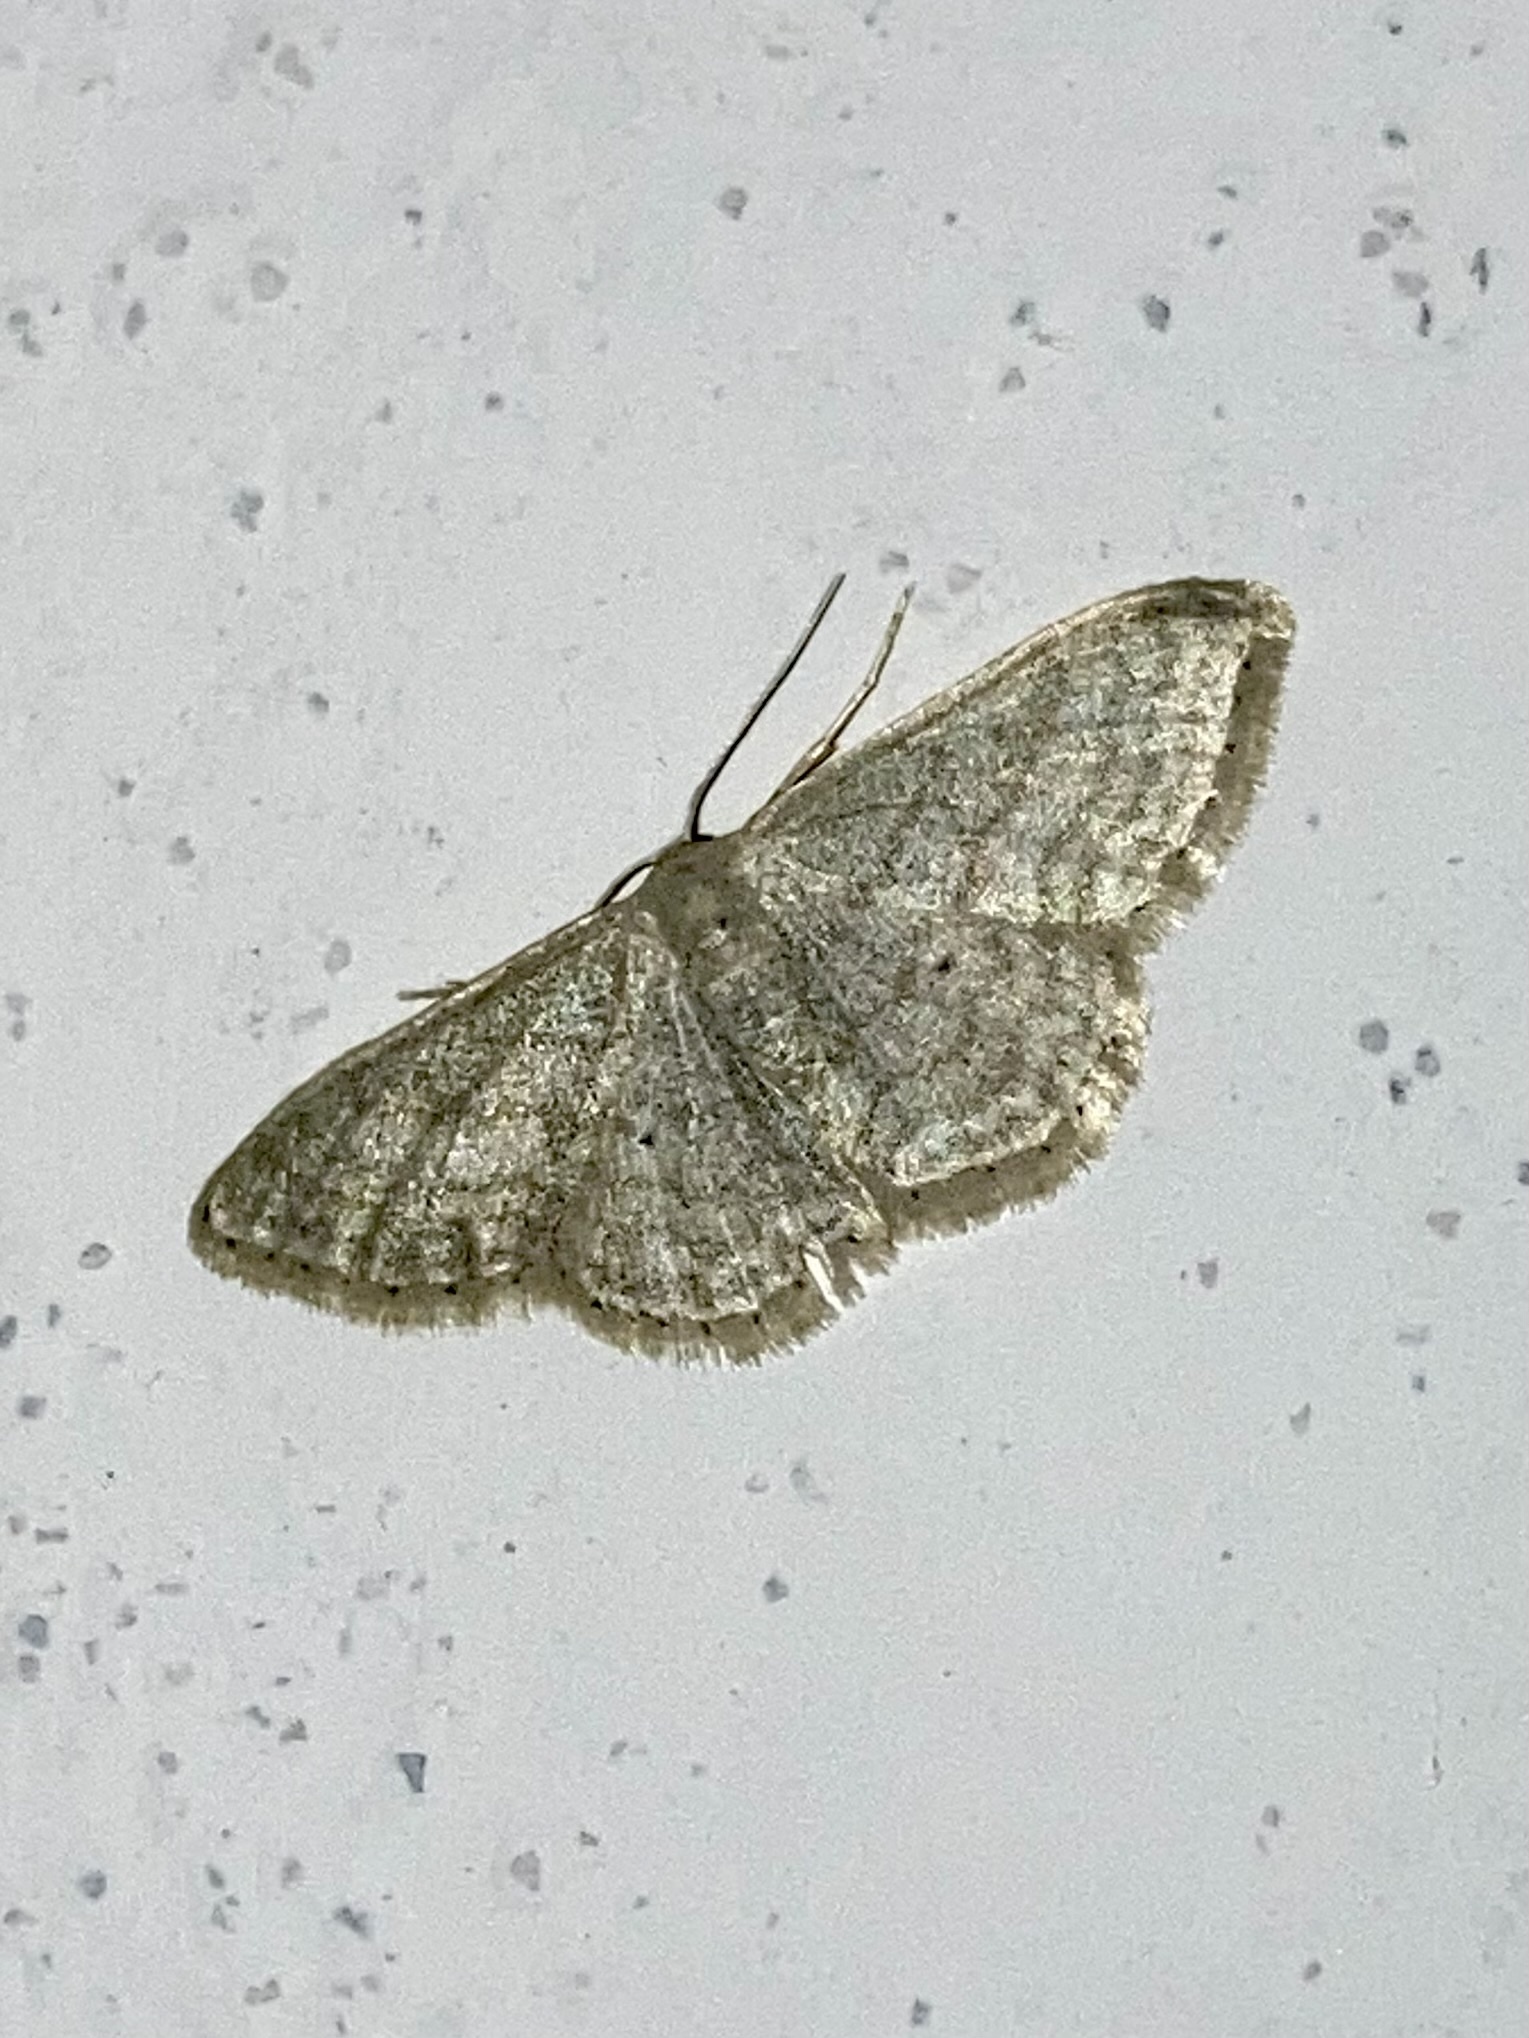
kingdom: Animalia
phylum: Arthropoda
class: Insecta
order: Lepidoptera
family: Geometridae
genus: Idaea
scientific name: Idaea subsericeata
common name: Satin wave
